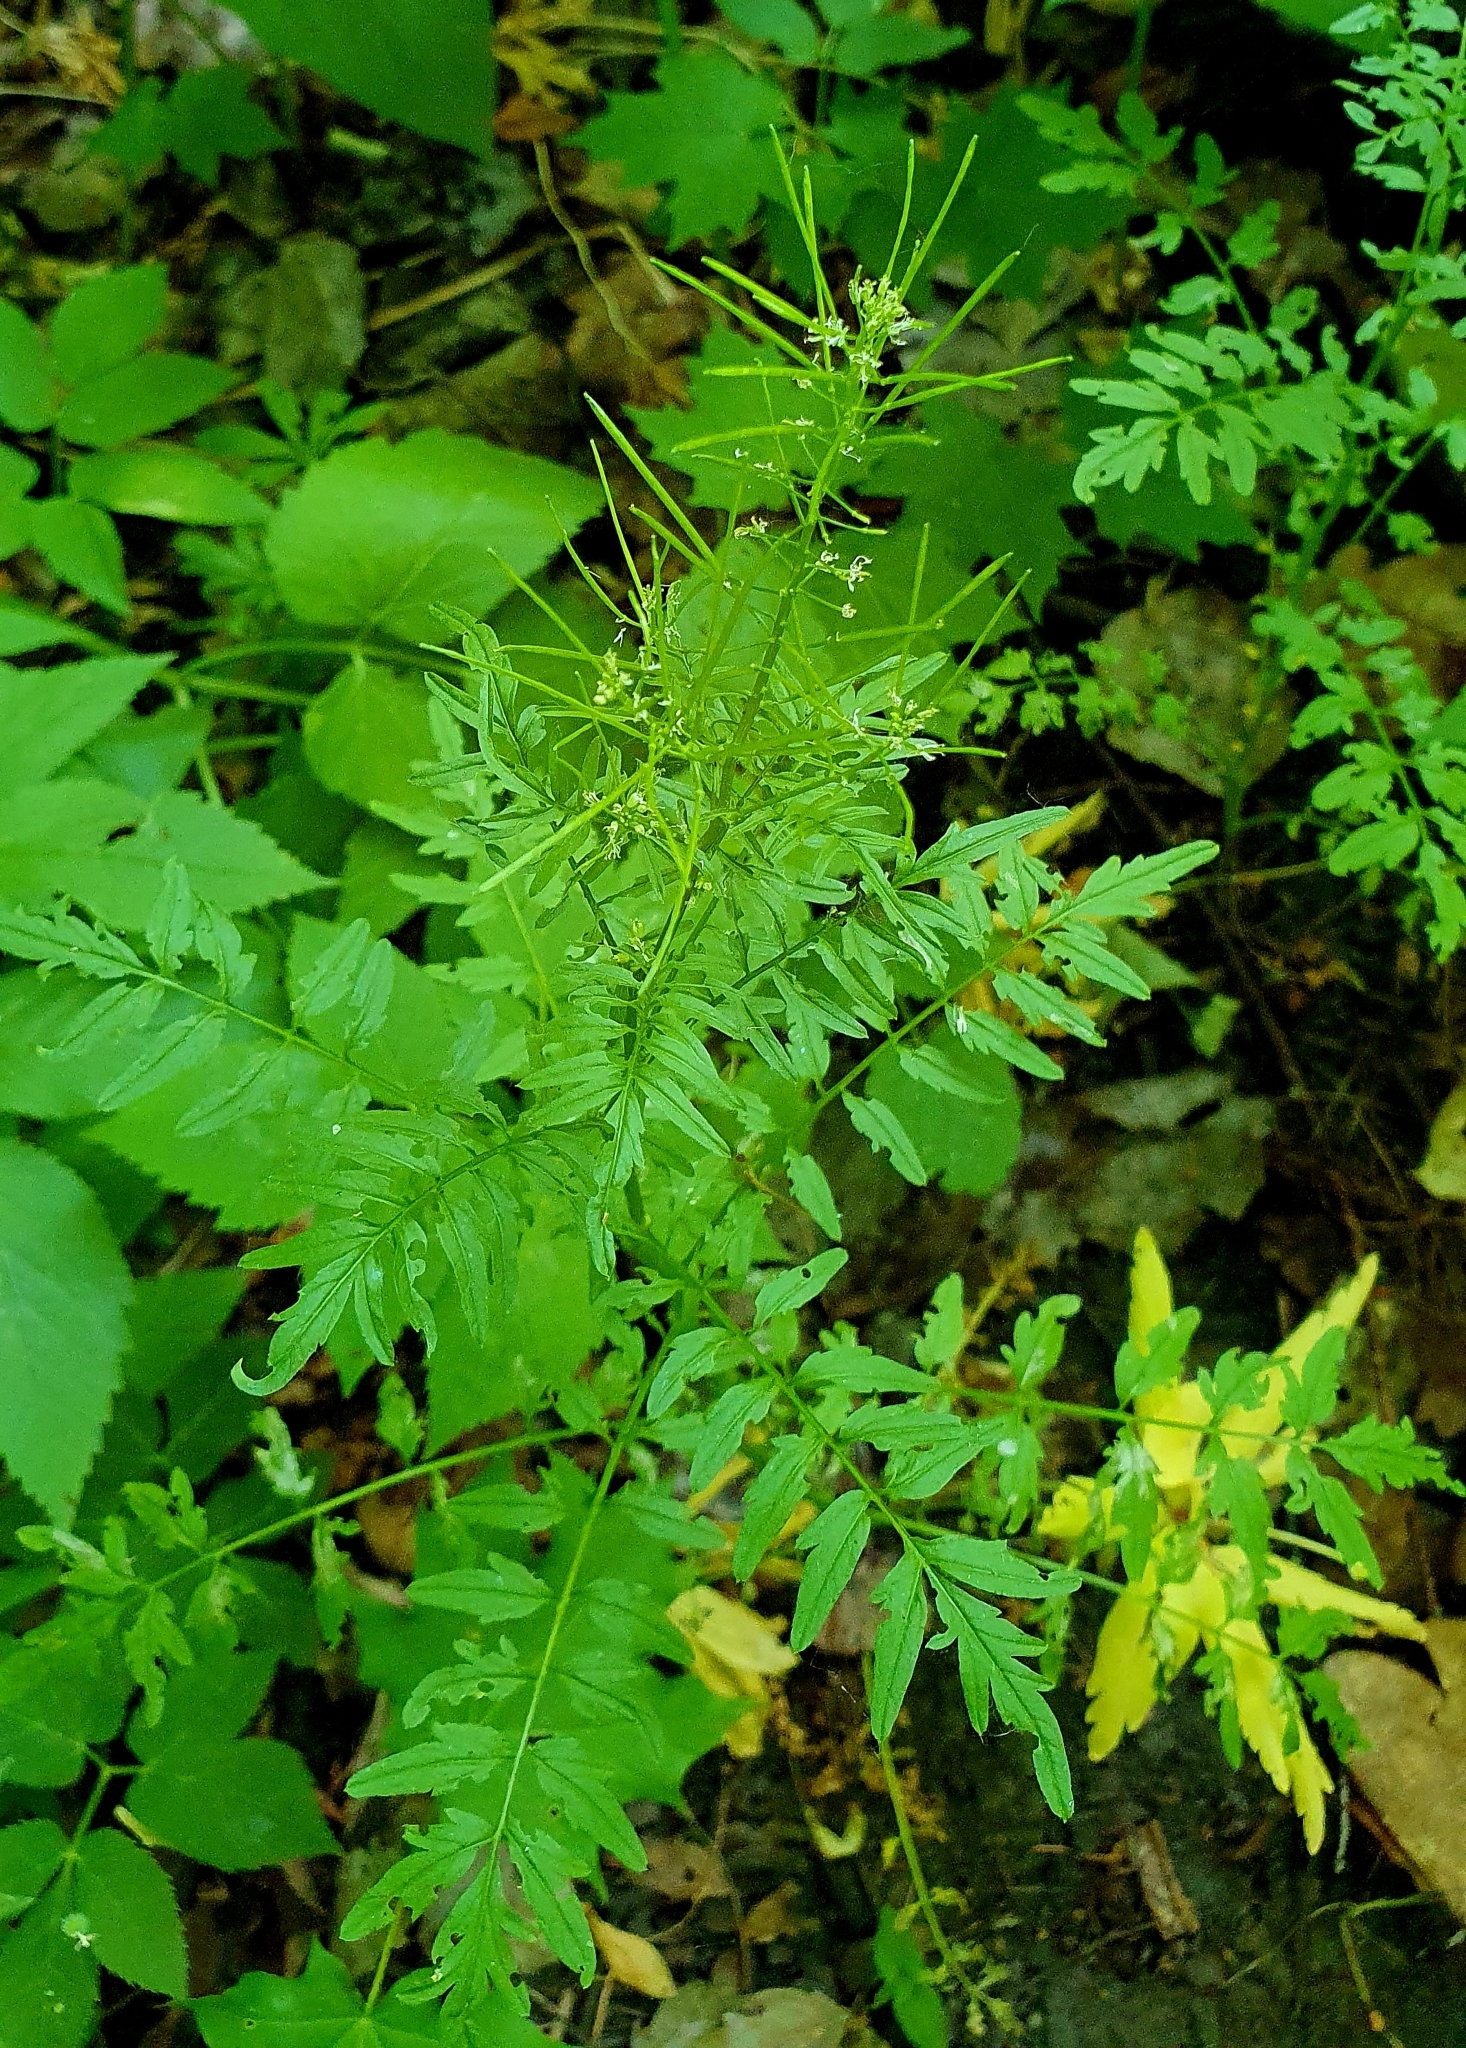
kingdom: Plantae
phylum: Tracheophyta
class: Magnoliopsida
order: Brassicales
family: Brassicaceae
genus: Cardamine
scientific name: Cardamine impatiens
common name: Narrow-leaved bitter-cress
